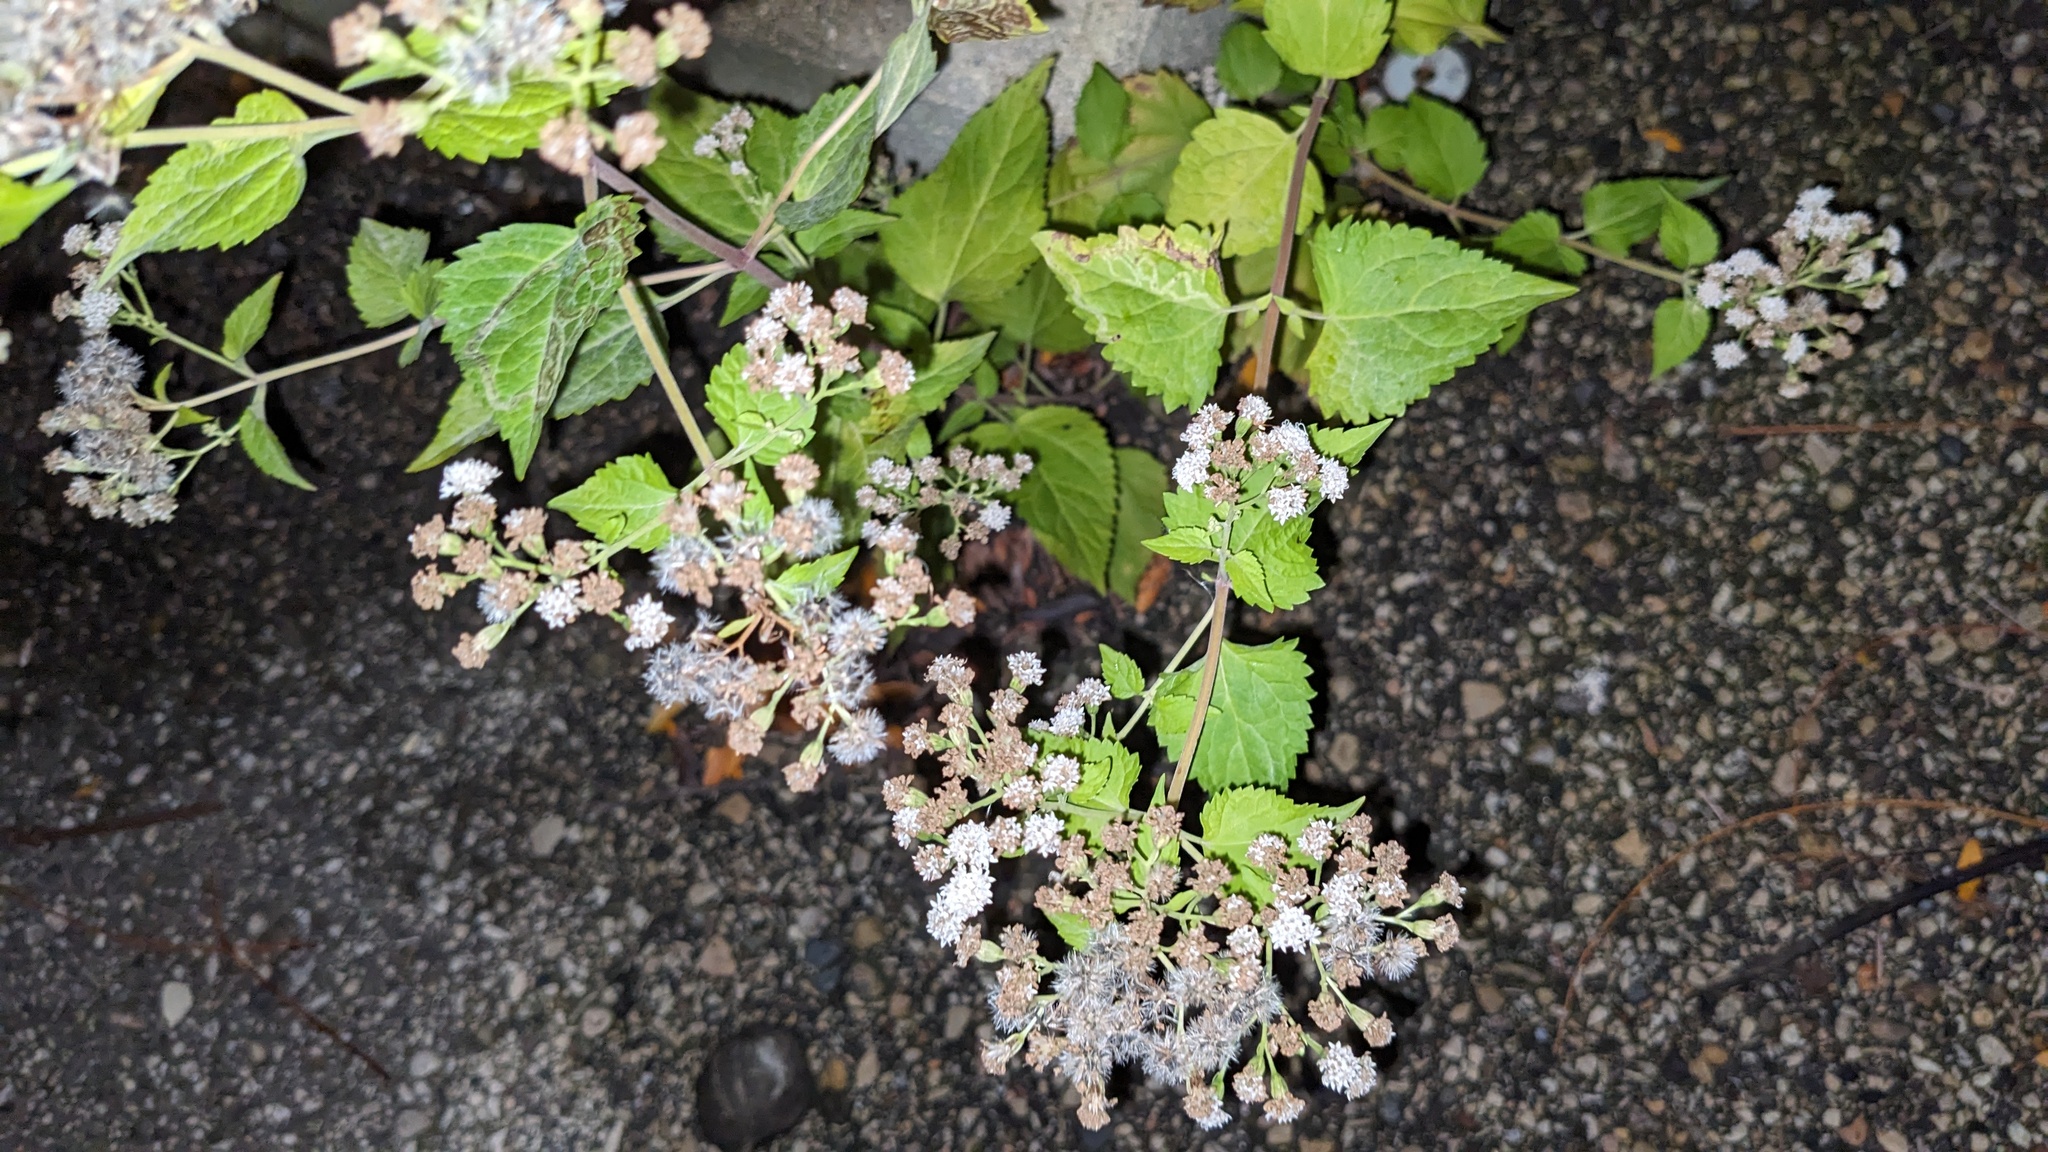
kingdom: Plantae
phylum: Tracheophyta
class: Magnoliopsida
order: Asterales
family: Asteraceae
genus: Ageratina
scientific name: Ageratina altissima
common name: White snakeroot
